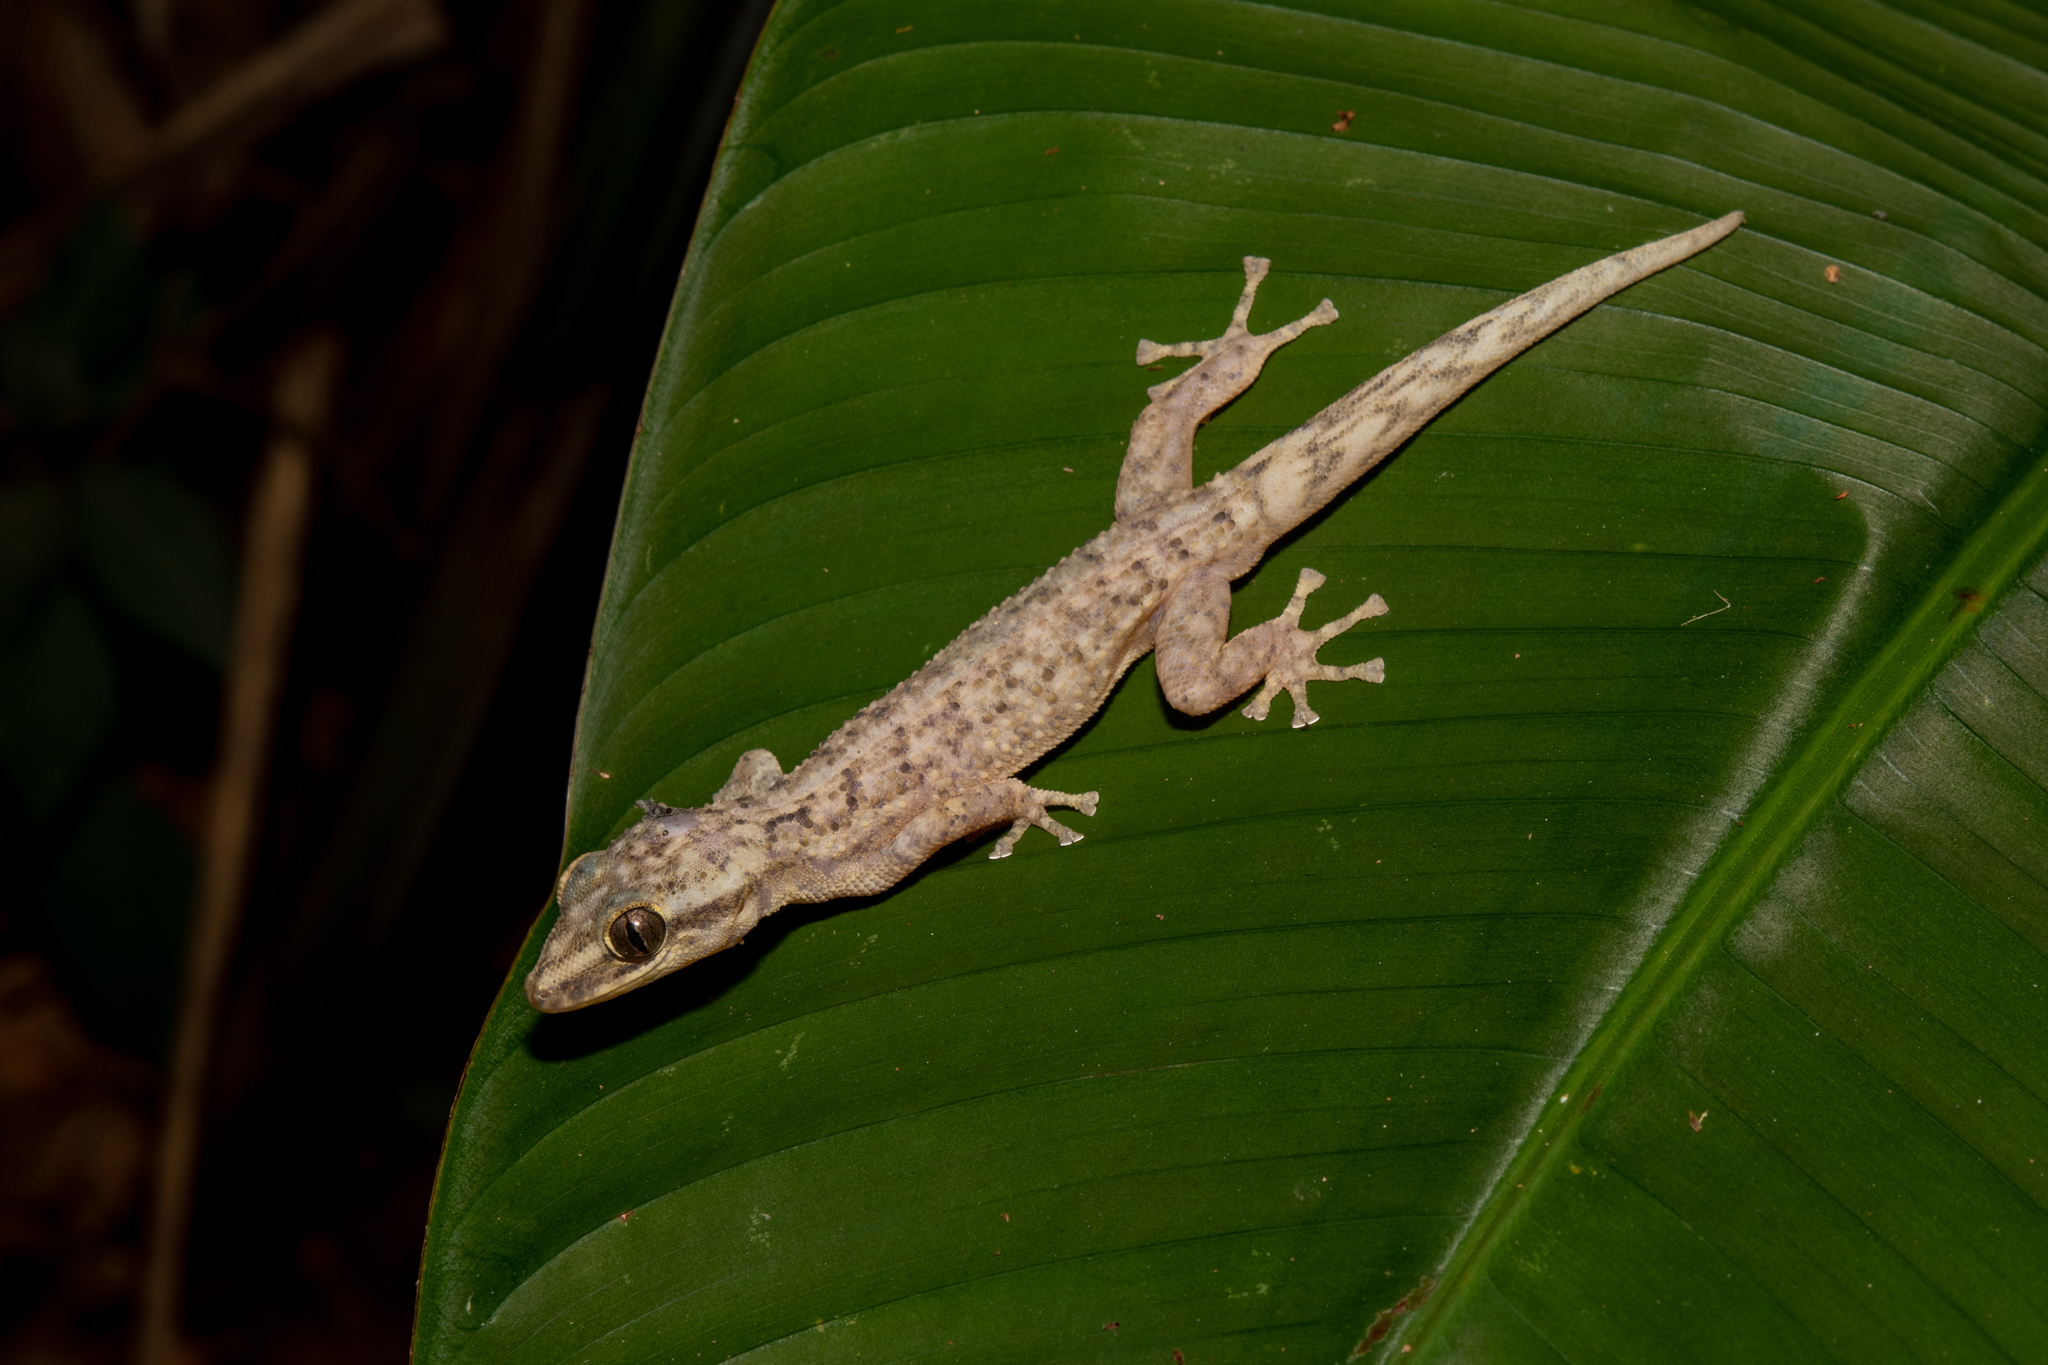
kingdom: Animalia
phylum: Chordata
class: Squamata
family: Phyllodactylidae
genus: Phyllodactylus
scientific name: Phyllodactylus palmeus
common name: Honduras leaf-toed gecko
